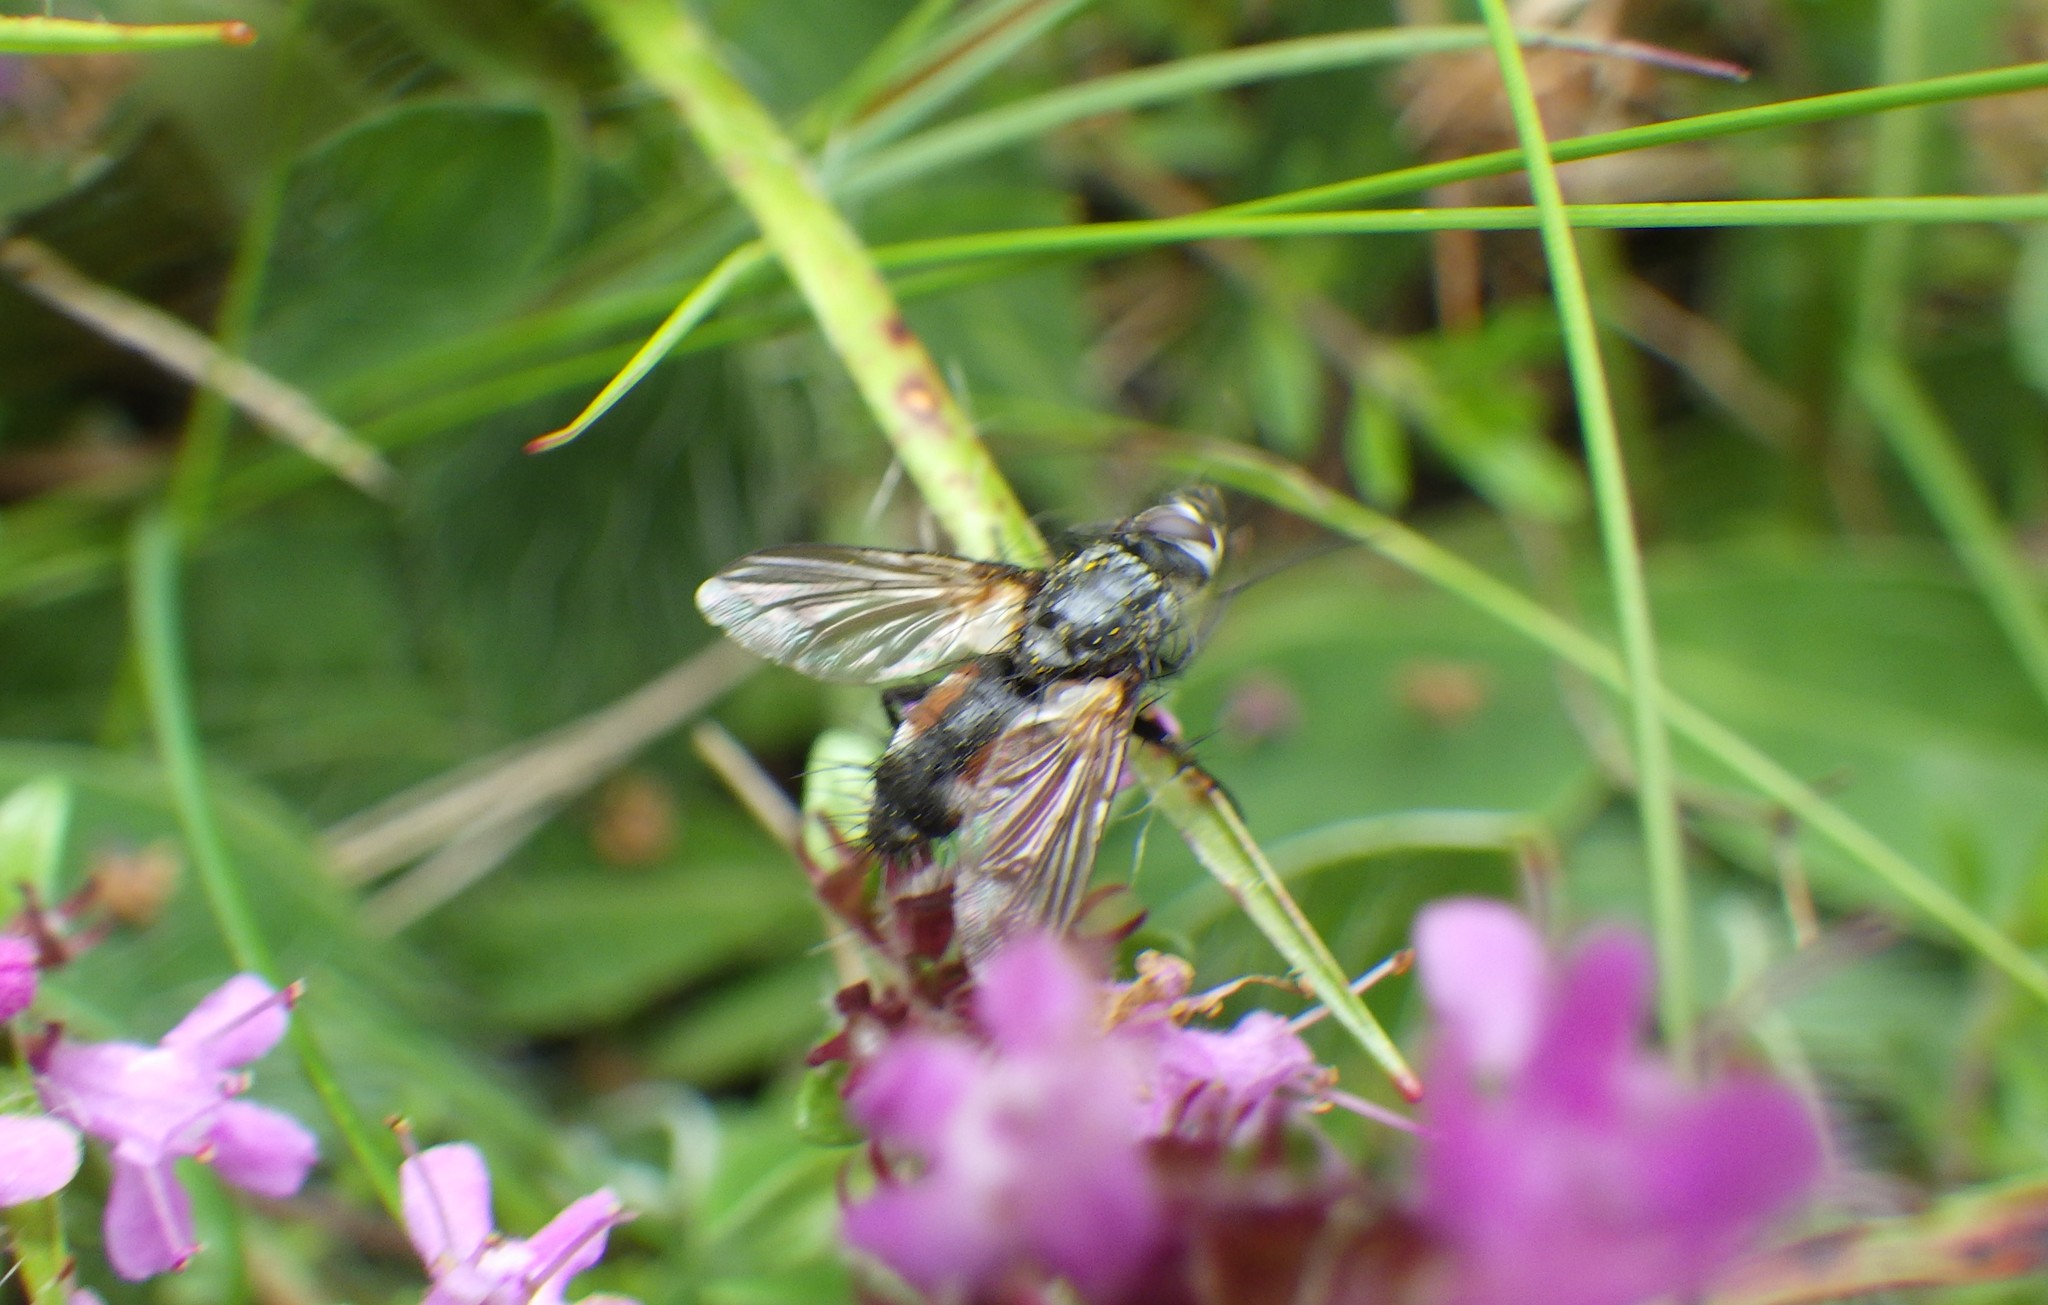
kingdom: Animalia
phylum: Arthropoda
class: Insecta
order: Diptera
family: Tachinidae
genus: Eriothrix
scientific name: Eriothrix rufomaculatus
